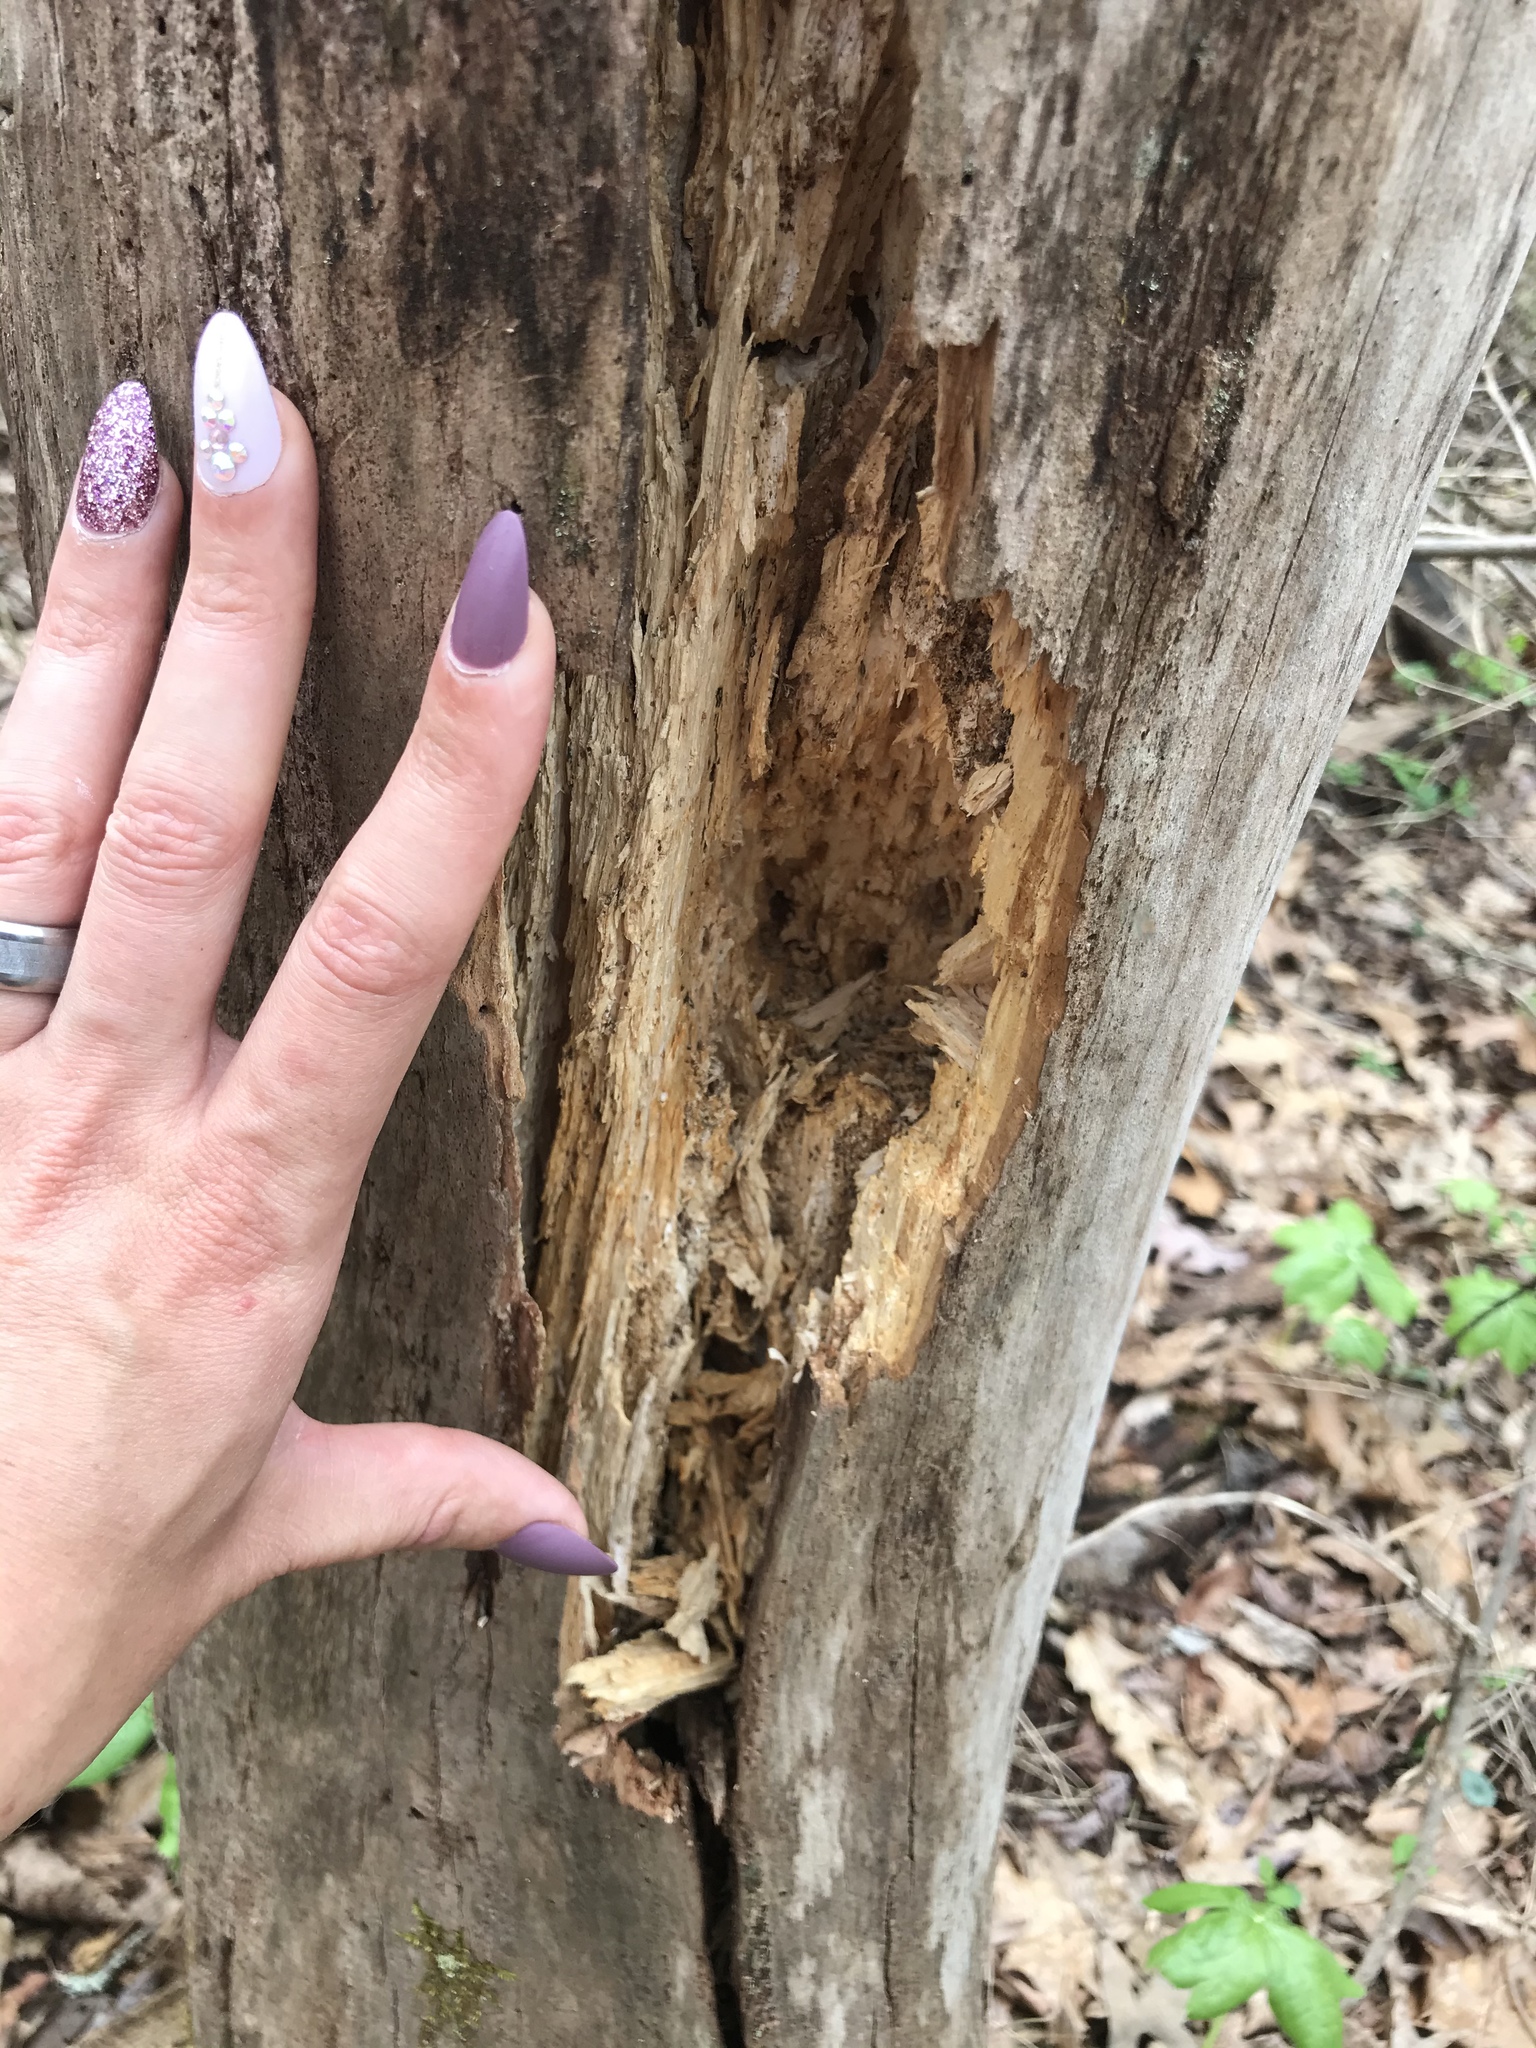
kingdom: Animalia
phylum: Chordata
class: Aves
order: Piciformes
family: Picidae
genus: Dryocopus
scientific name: Dryocopus pileatus
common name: Pileated woodpecker
